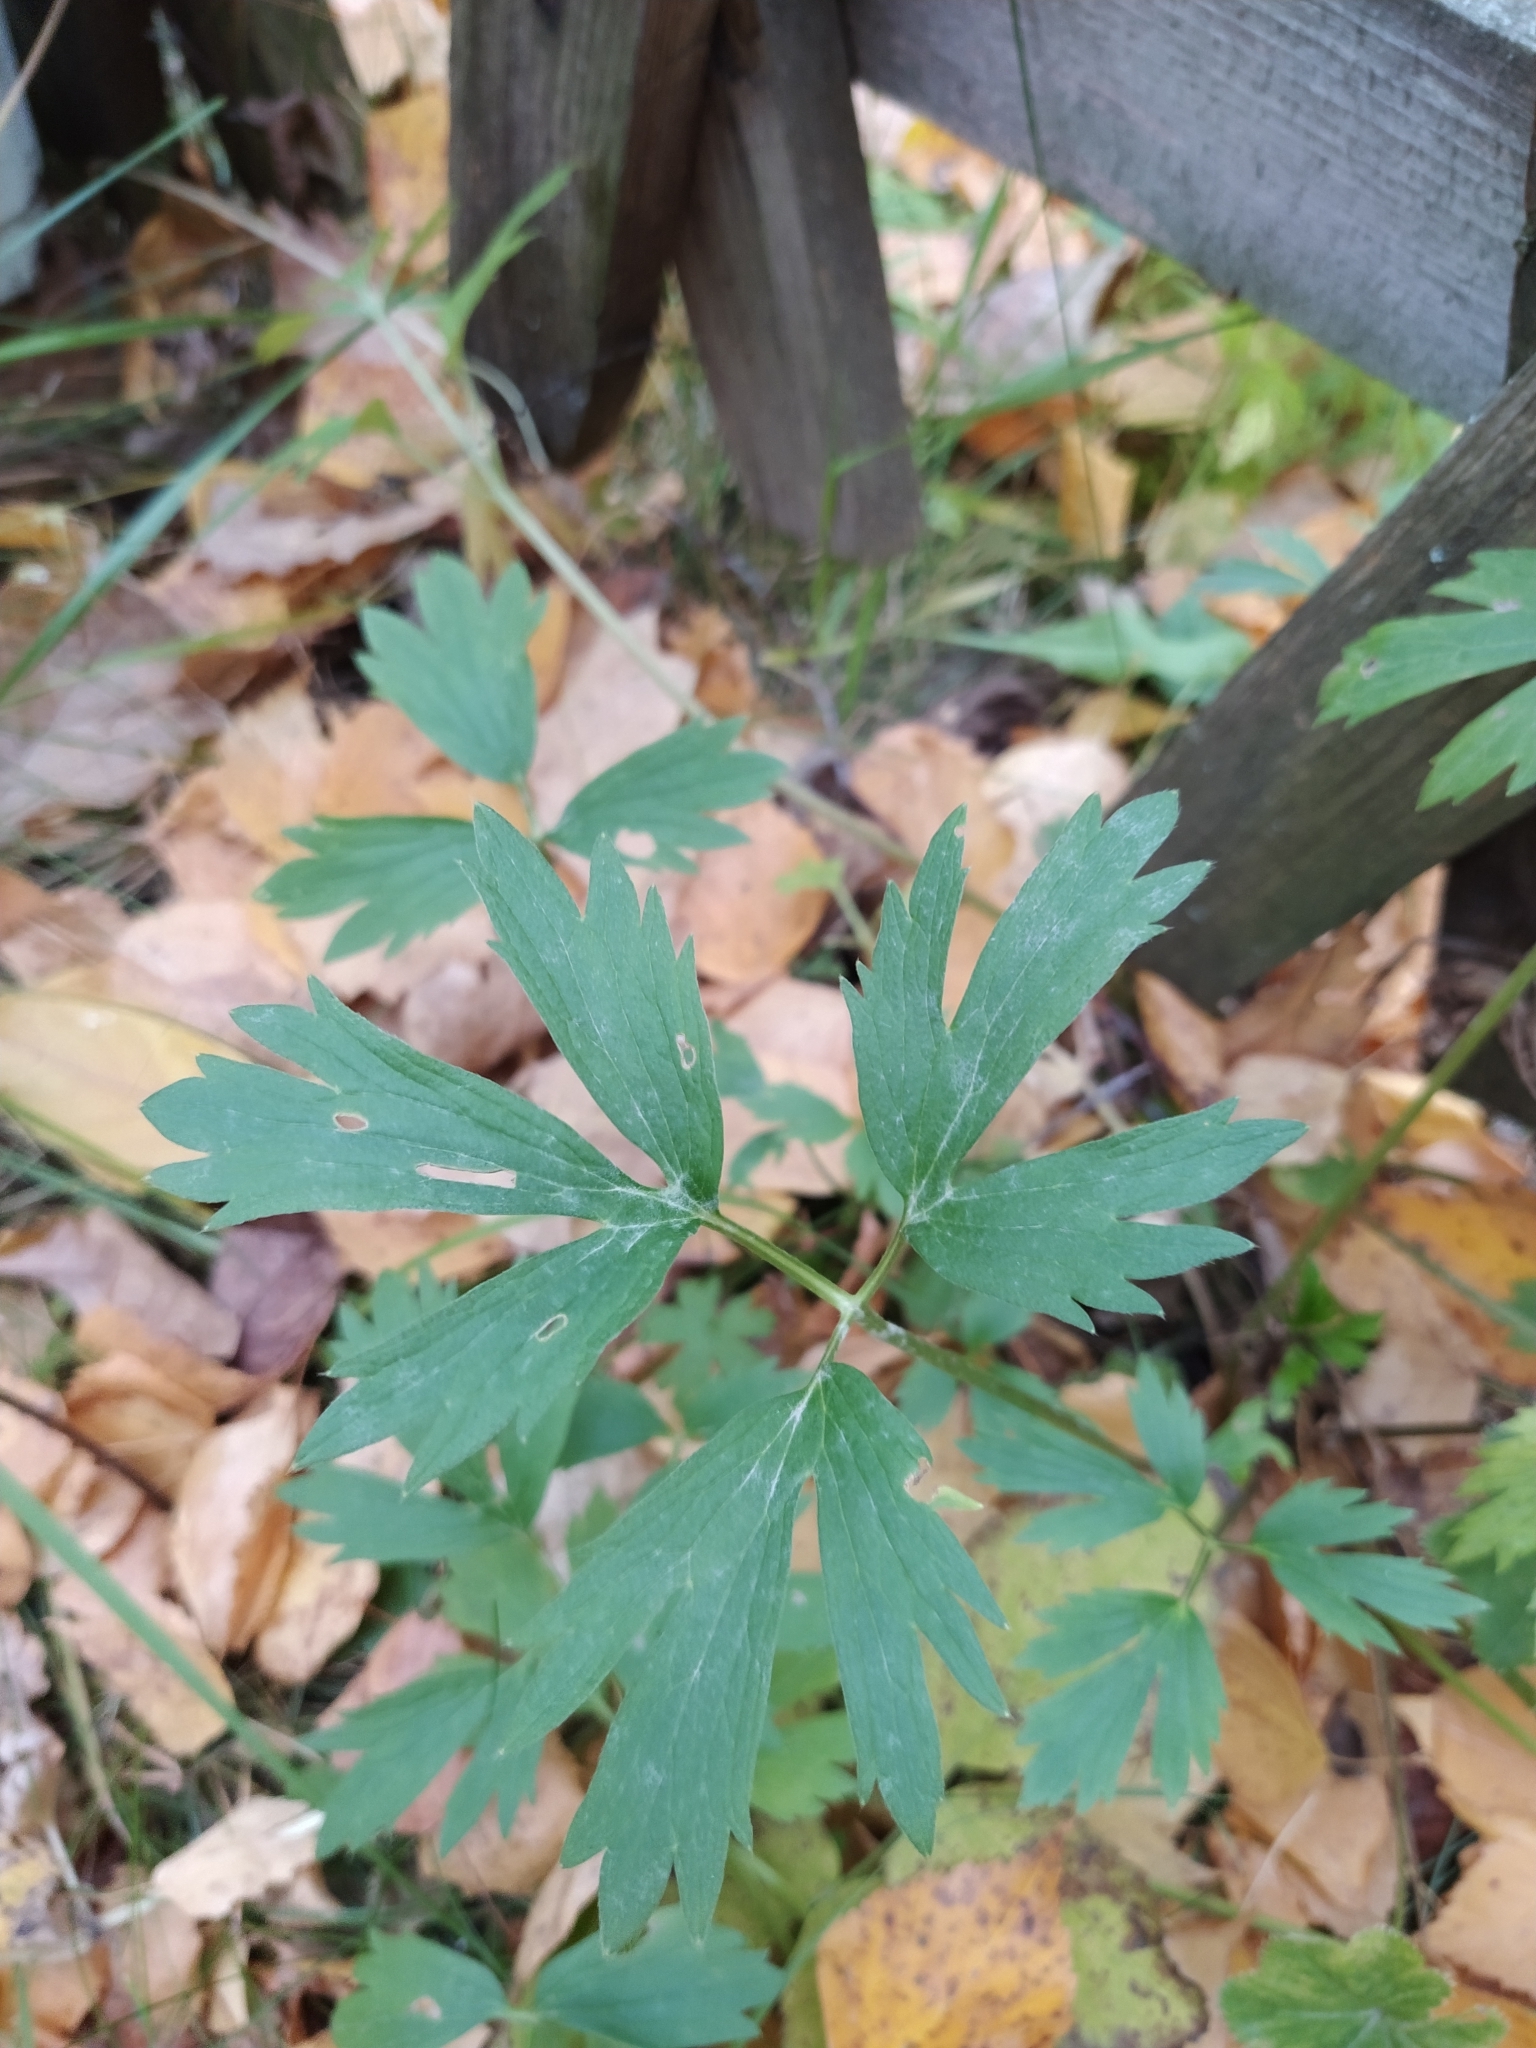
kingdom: Plantae
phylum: Tracheophyta
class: Magnoliopsida
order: Ranunculales
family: Ranunculaceae
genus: Ranunculus
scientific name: Ranunculus repens
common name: Creeping buttercup
